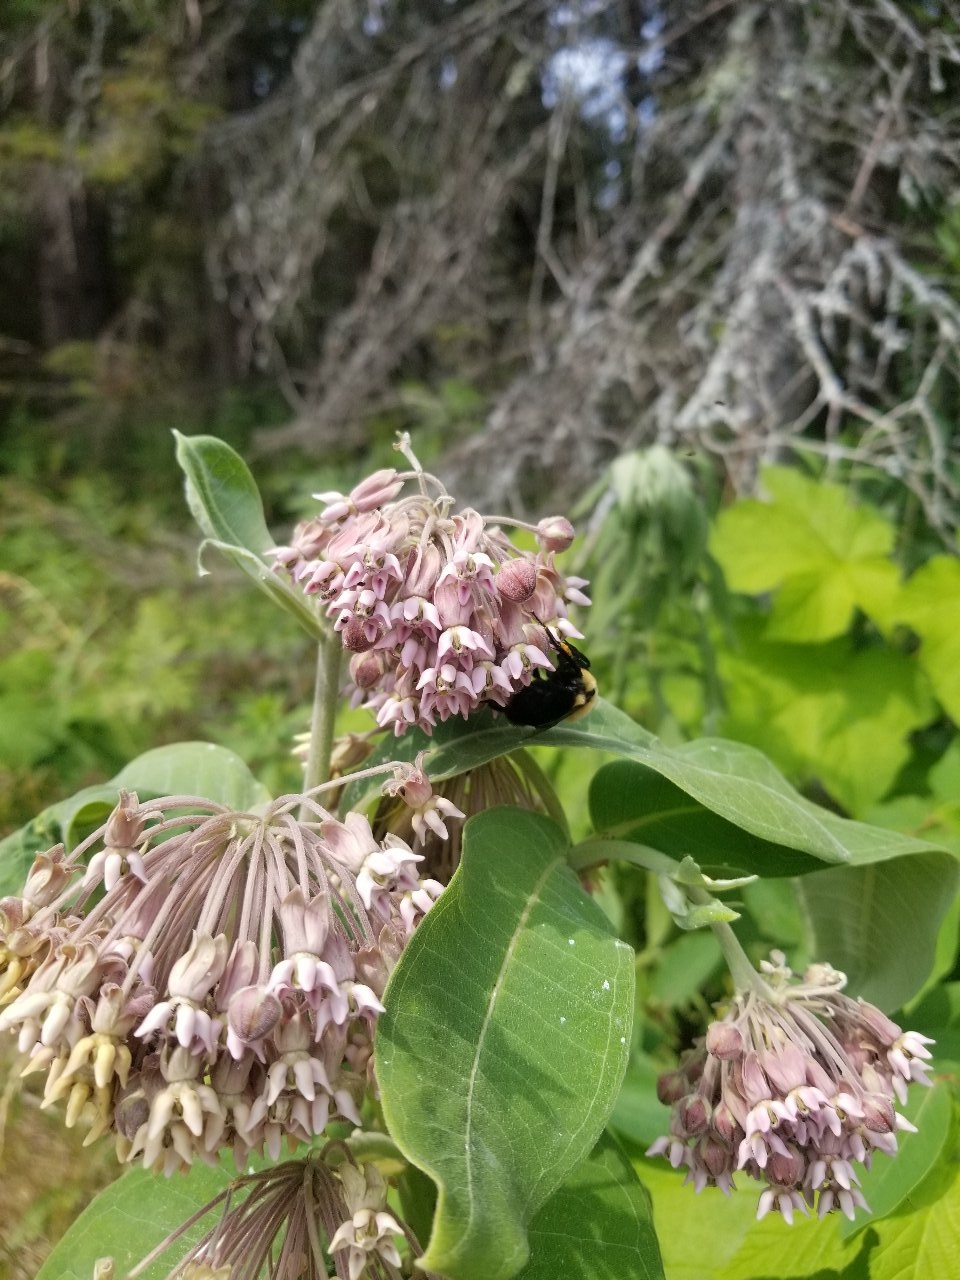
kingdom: Plantae
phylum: Tracheophyta
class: Magnoliopsida
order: Gentianales
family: Apocynaceae
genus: Asclepias
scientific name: Asclepias syriaca
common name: Common milkweed
